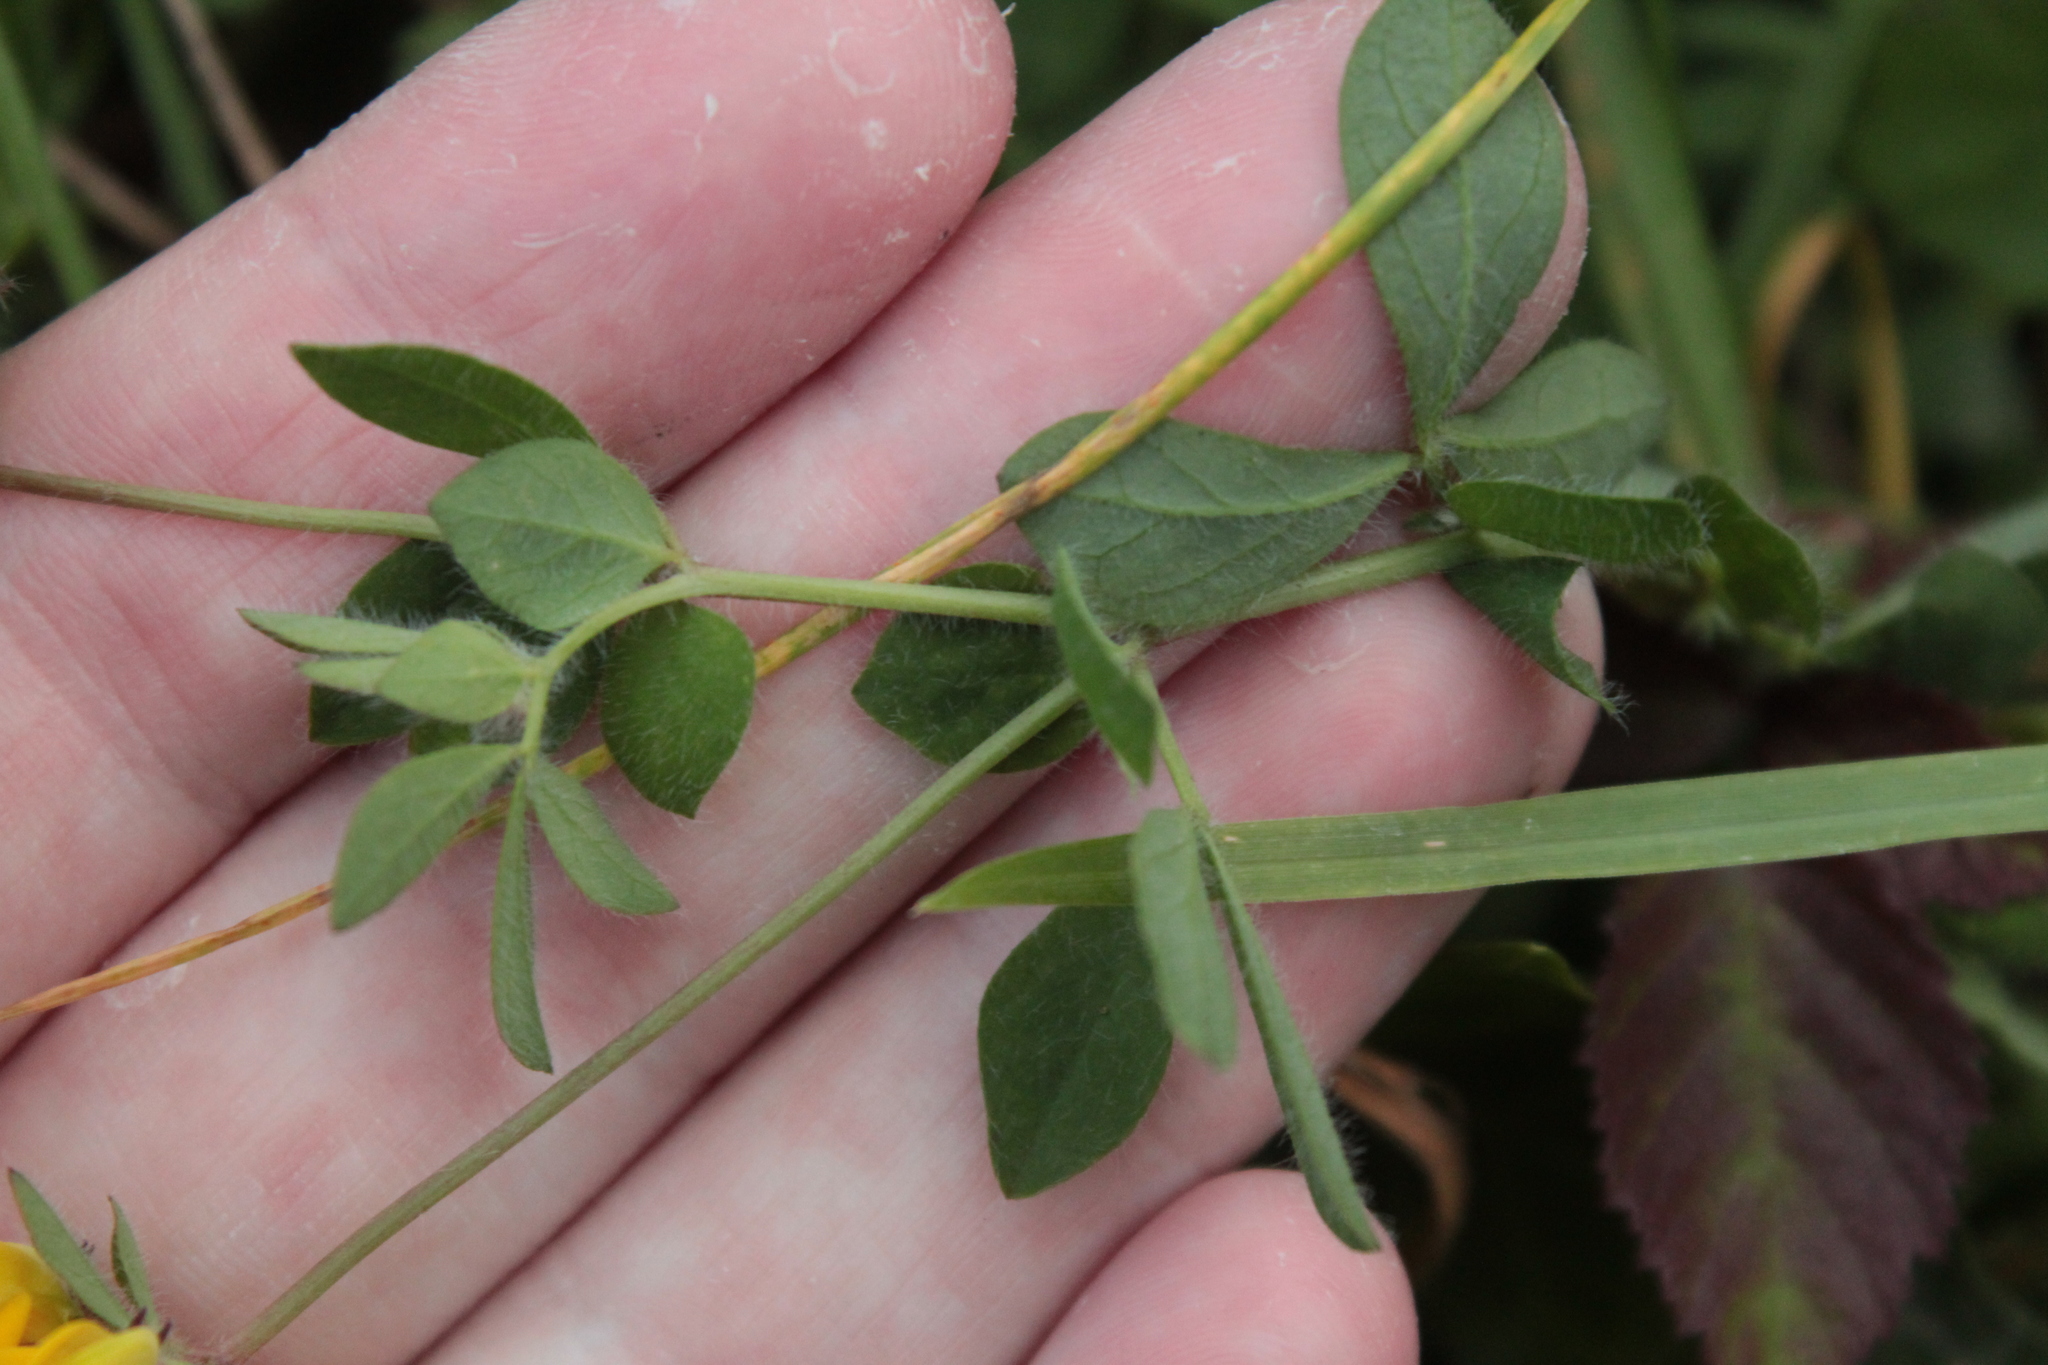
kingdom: Plantae
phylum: Tracheophyta
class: Magnoliopsida
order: Fabales
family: Fabaceae
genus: Lotus
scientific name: Lotus pedunculatus
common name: Greater birdsfoot-trefoil
